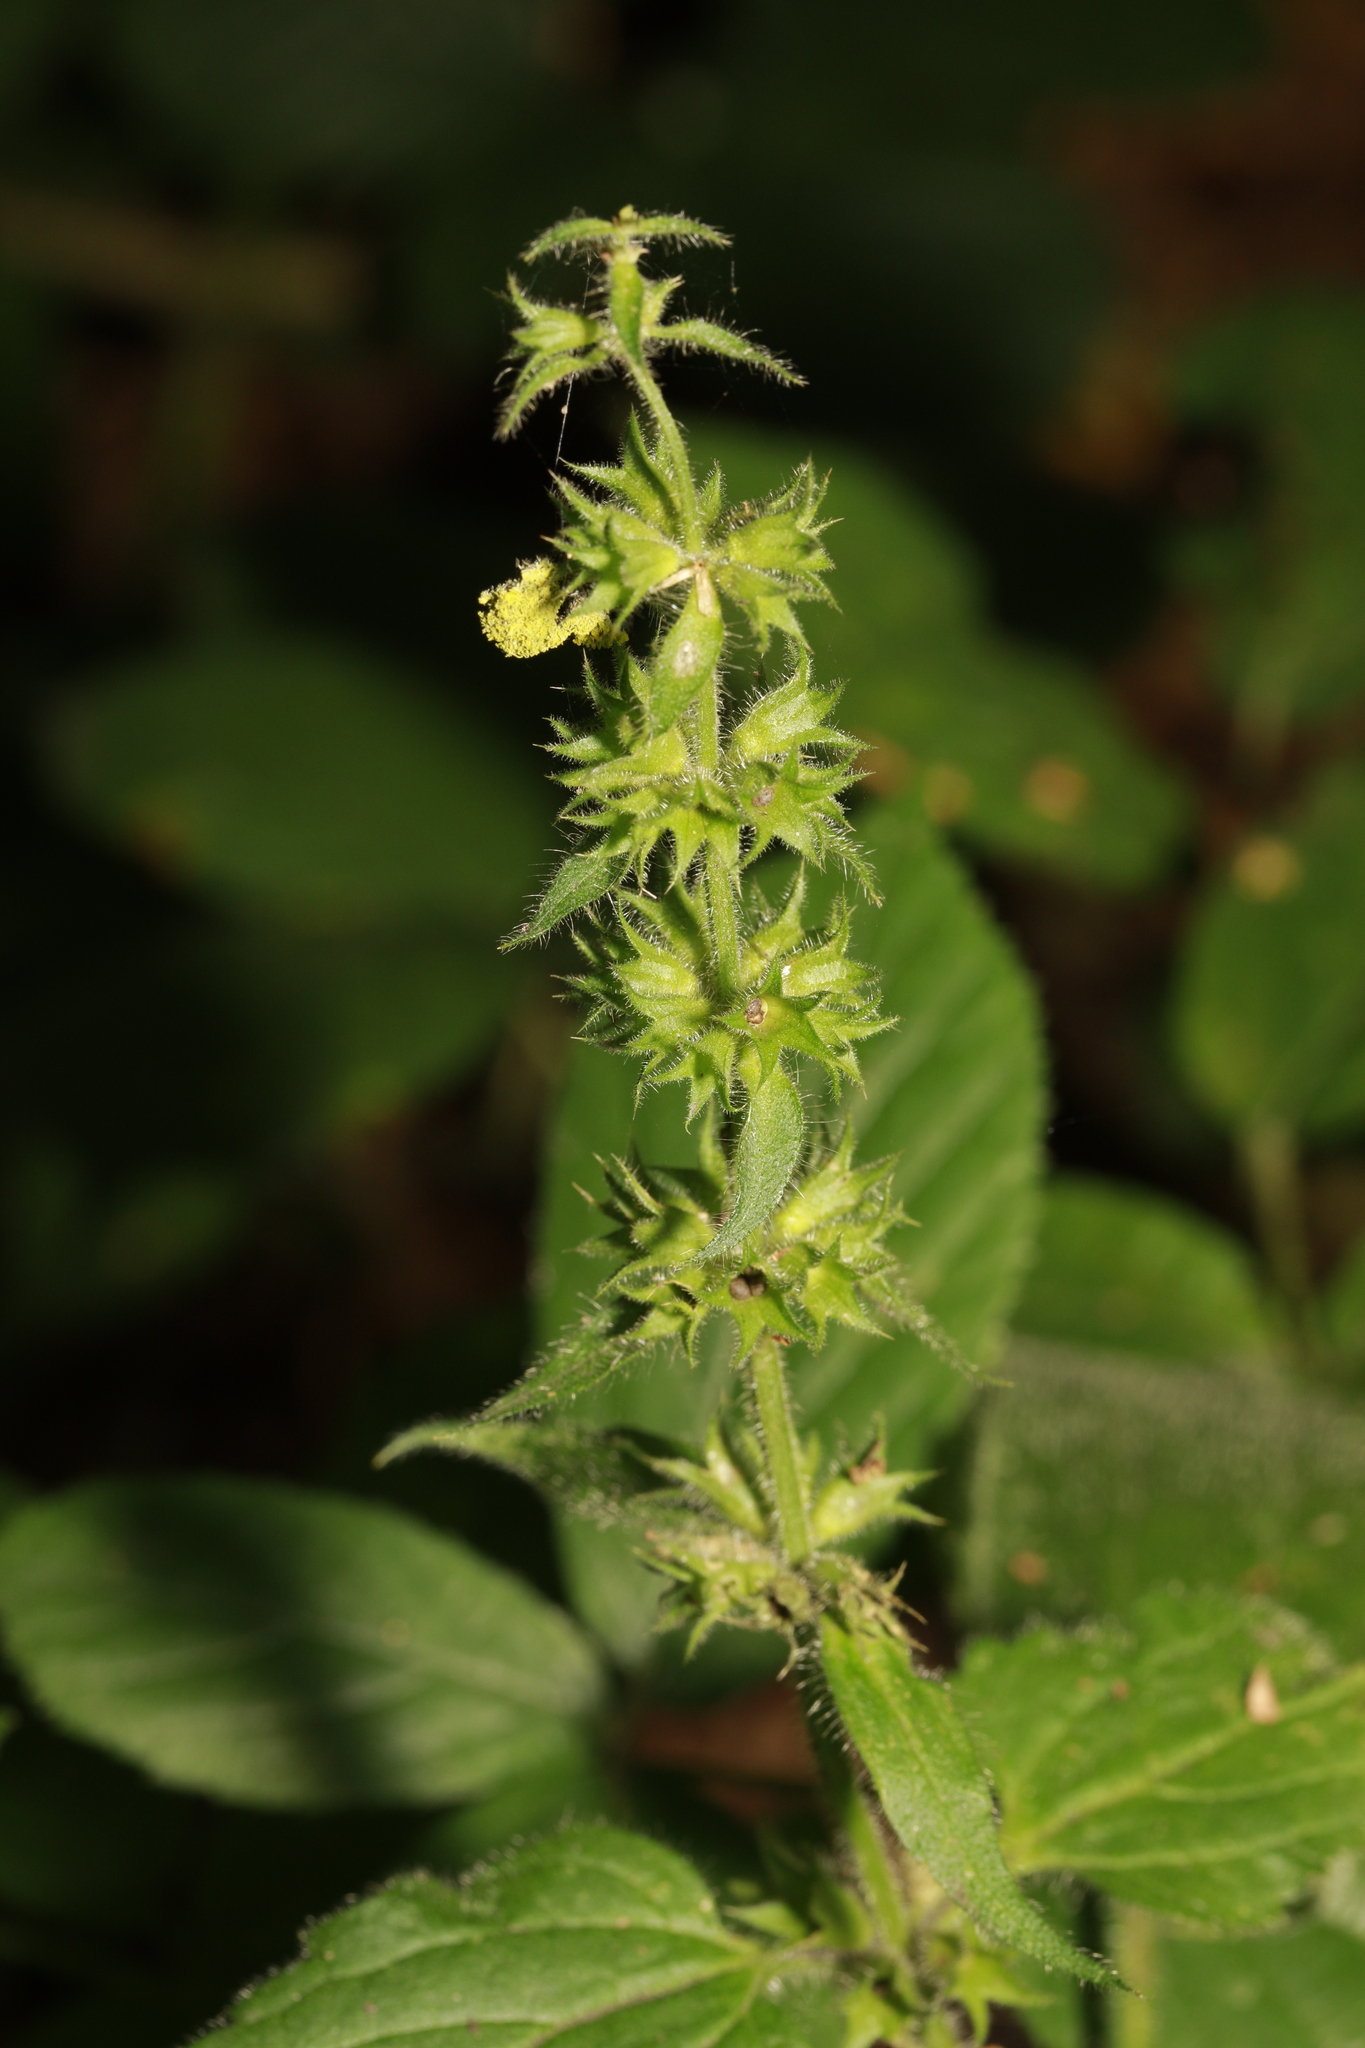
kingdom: Plantae
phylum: Tracheophyta
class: Magnoliopsida
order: Lamiales
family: Lamiaceae
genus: Stachys
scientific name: Stachys sylvatica
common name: Hedge woundwort
